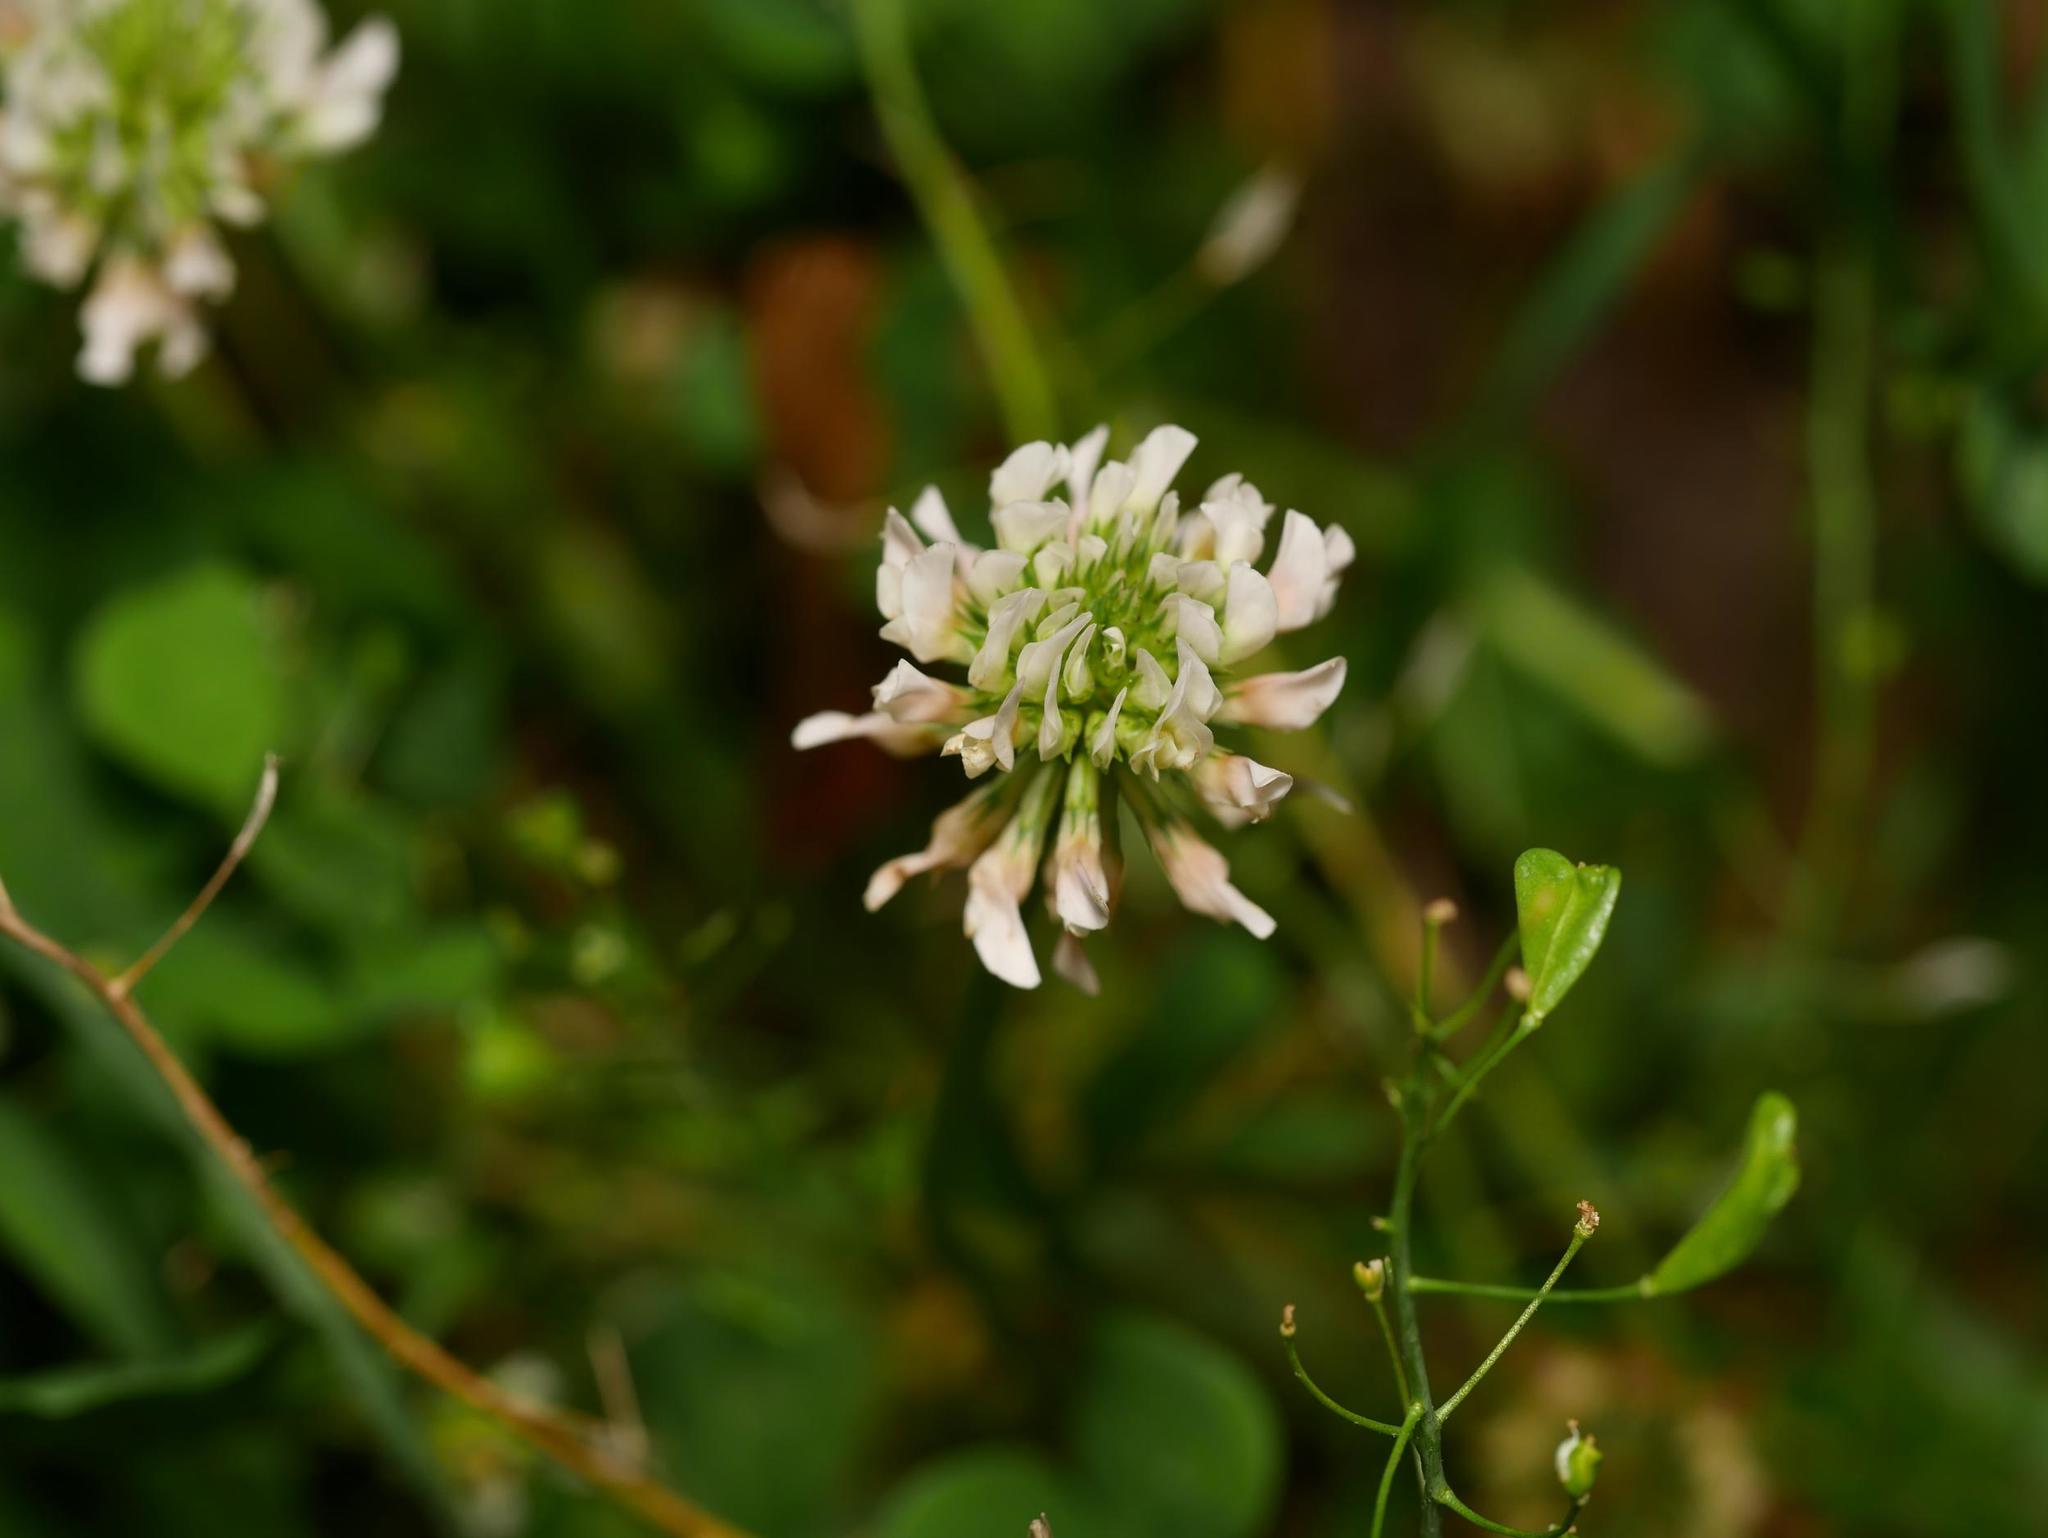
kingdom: Plantae
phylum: Tracheophyta
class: Magnoliopsida
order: Fabales
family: Fabaceae
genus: Trifolium
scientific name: Trifolium repens
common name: White clover
